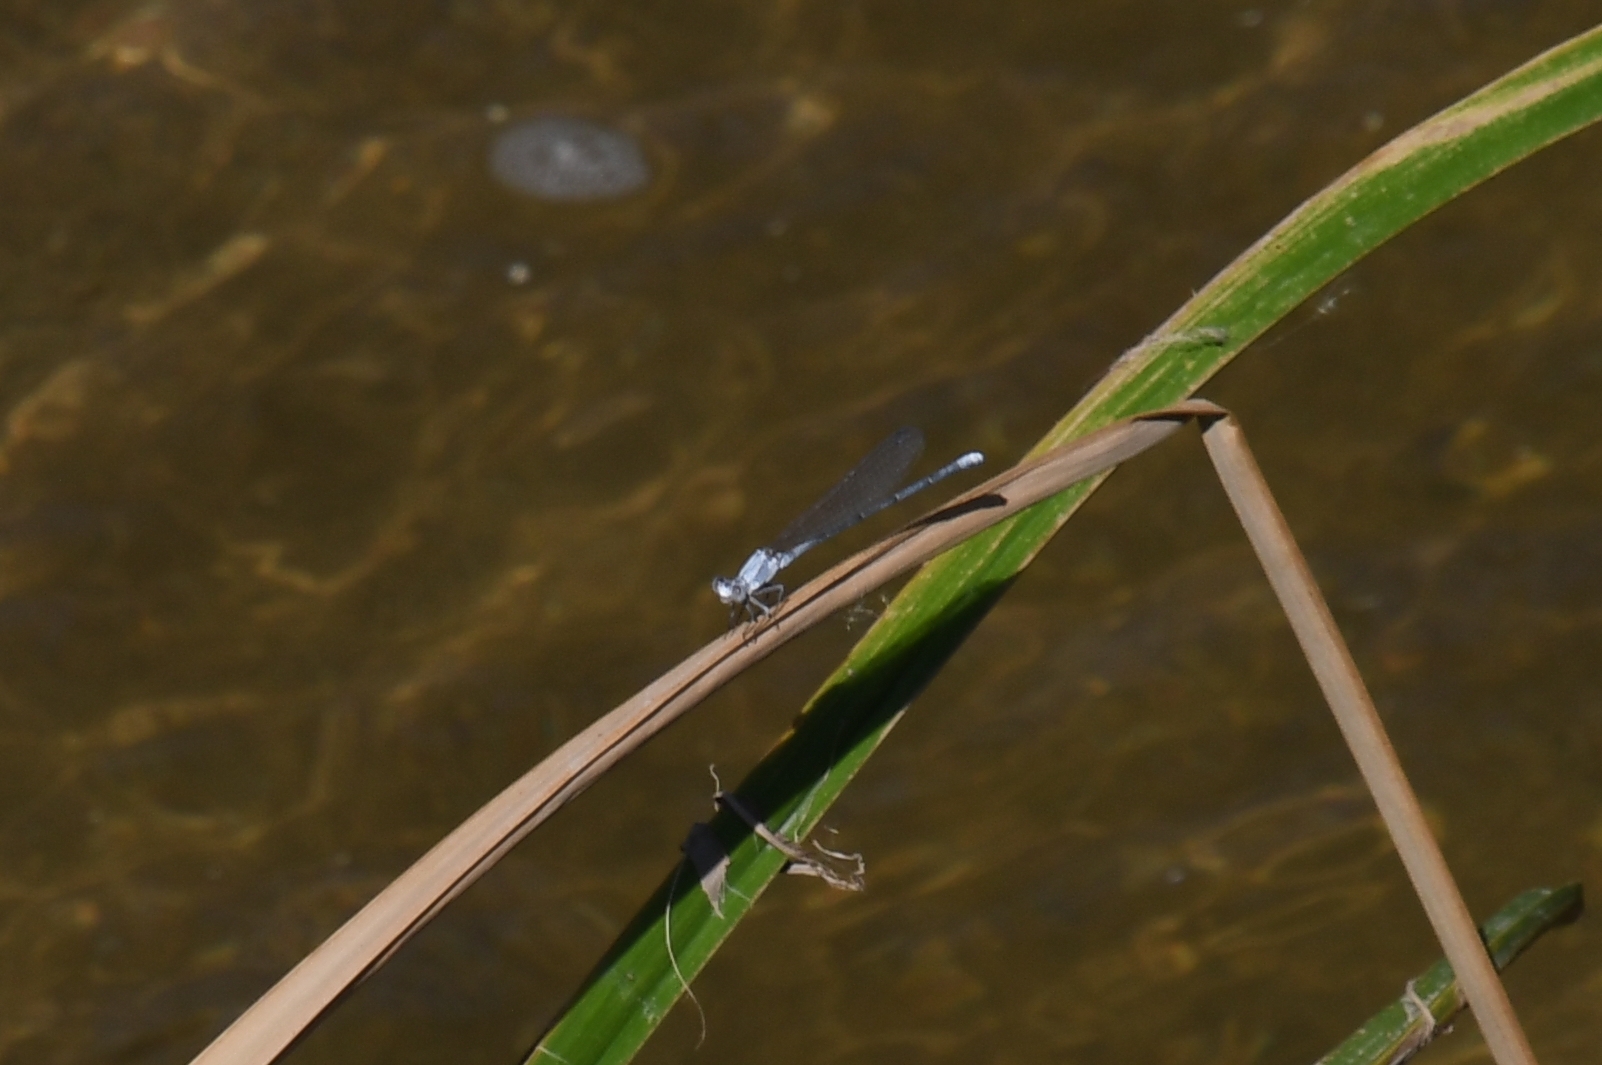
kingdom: Animalia
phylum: Arthropoda
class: Insecta
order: Odonata
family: Coenagrionidae
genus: Argia
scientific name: Argia moesta
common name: Powdered dancer
